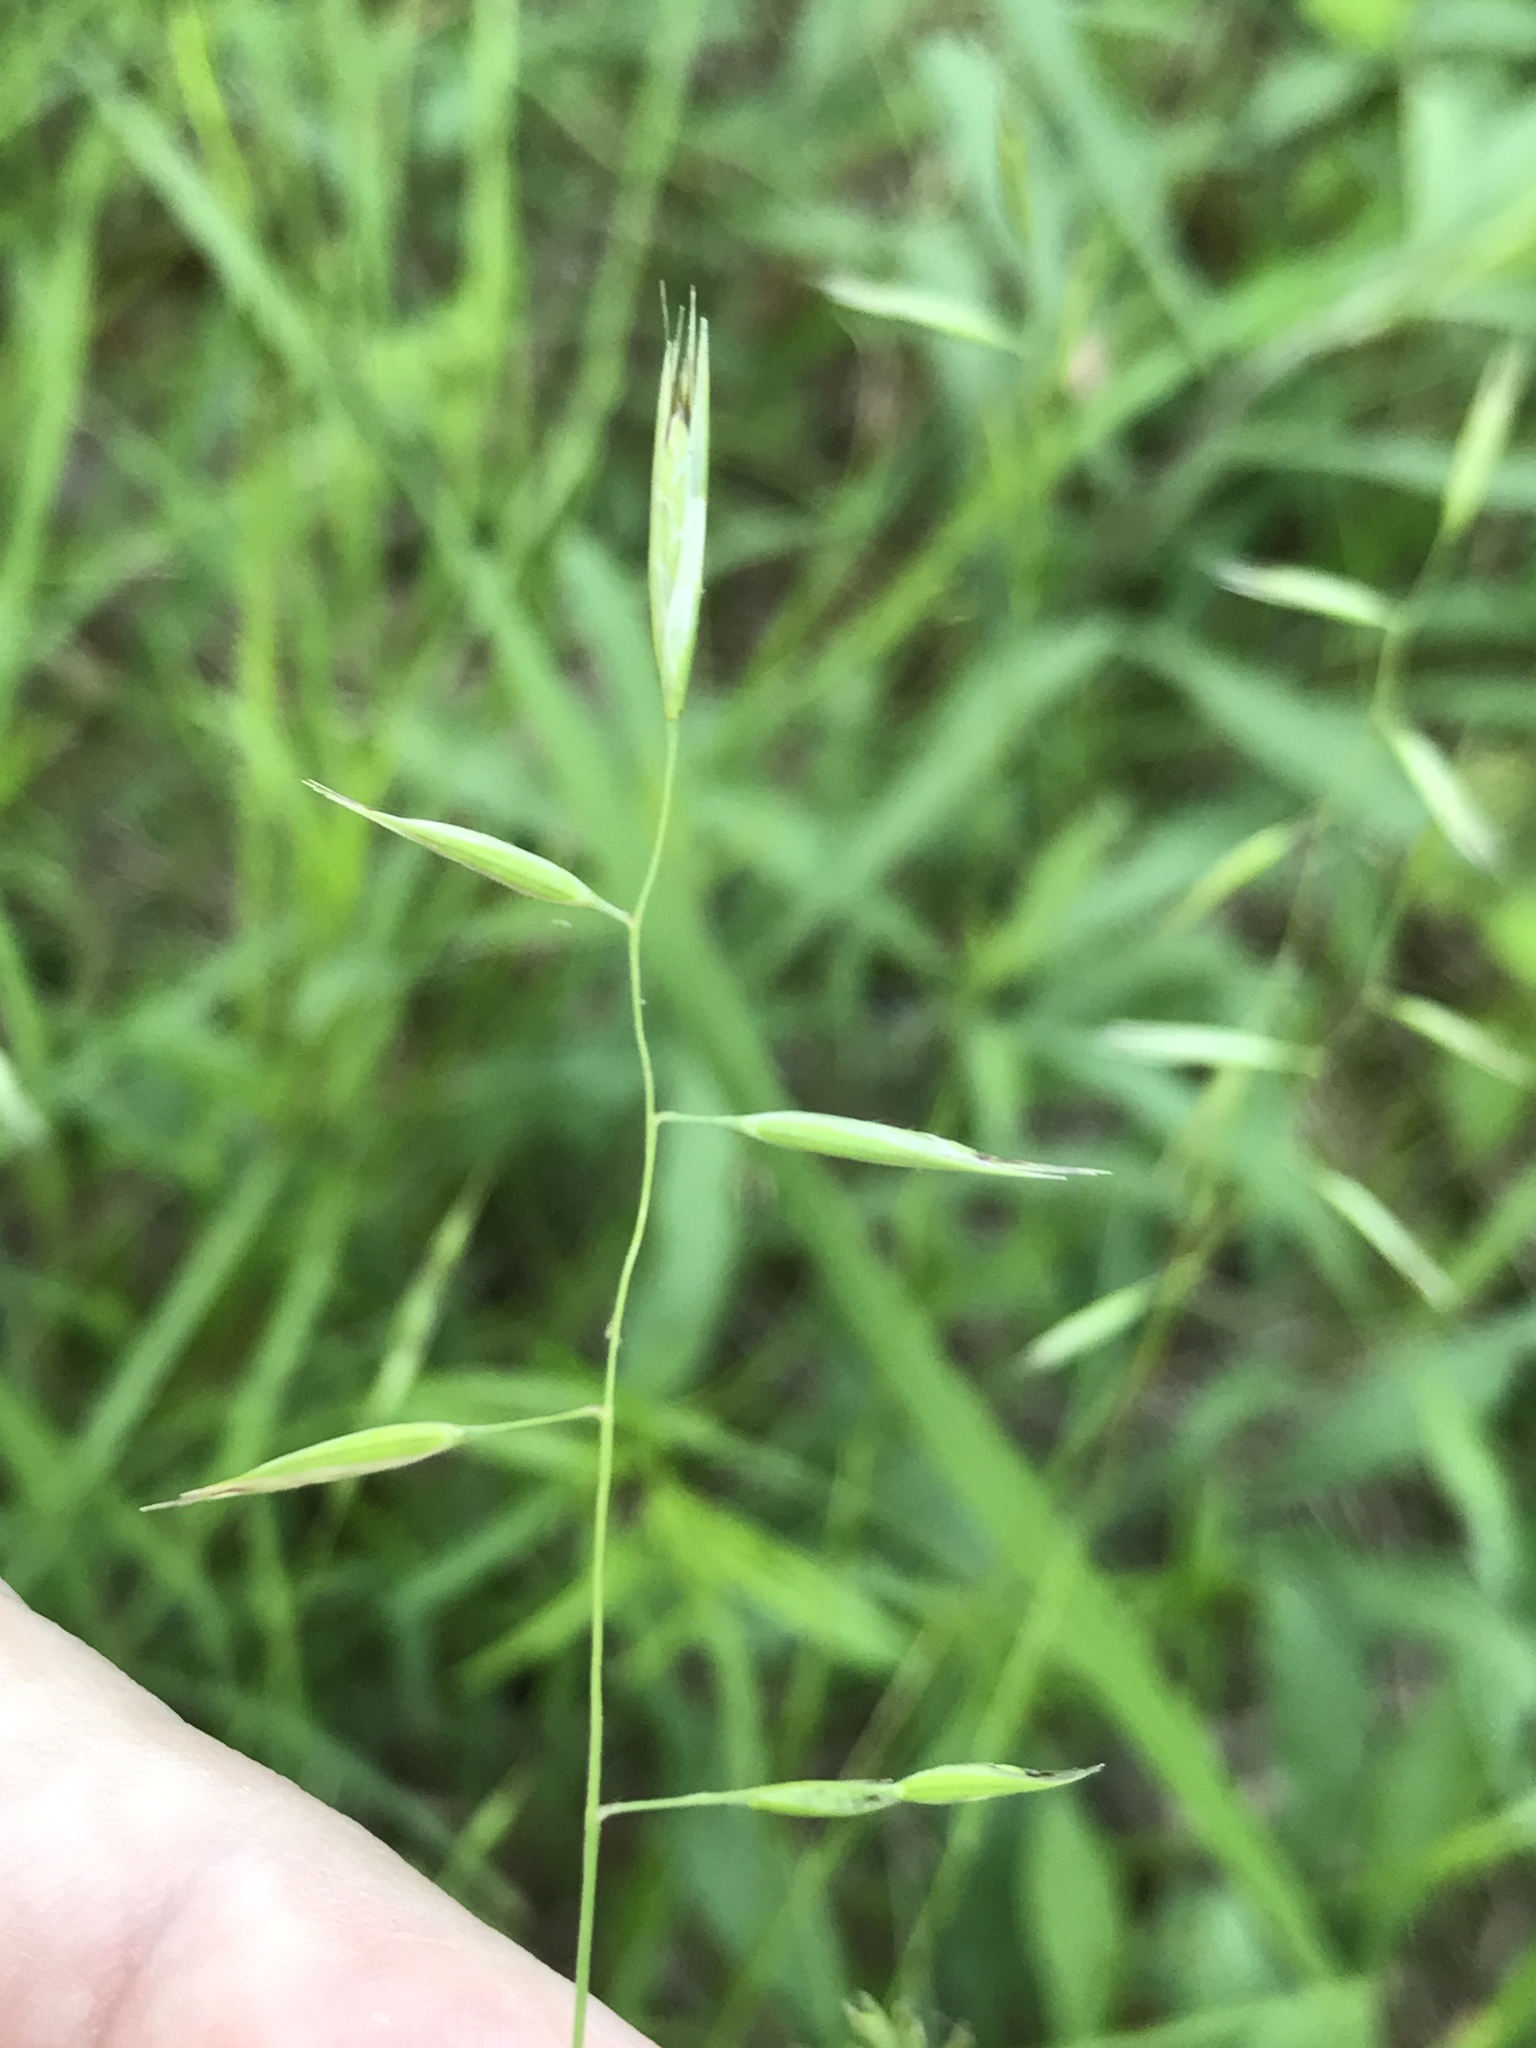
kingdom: Plantae
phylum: Tracheophyta
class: Liliopsida
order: Poales
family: Poaceae
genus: Danthonia
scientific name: Danthonia spicata
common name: Common wild oatgrass
